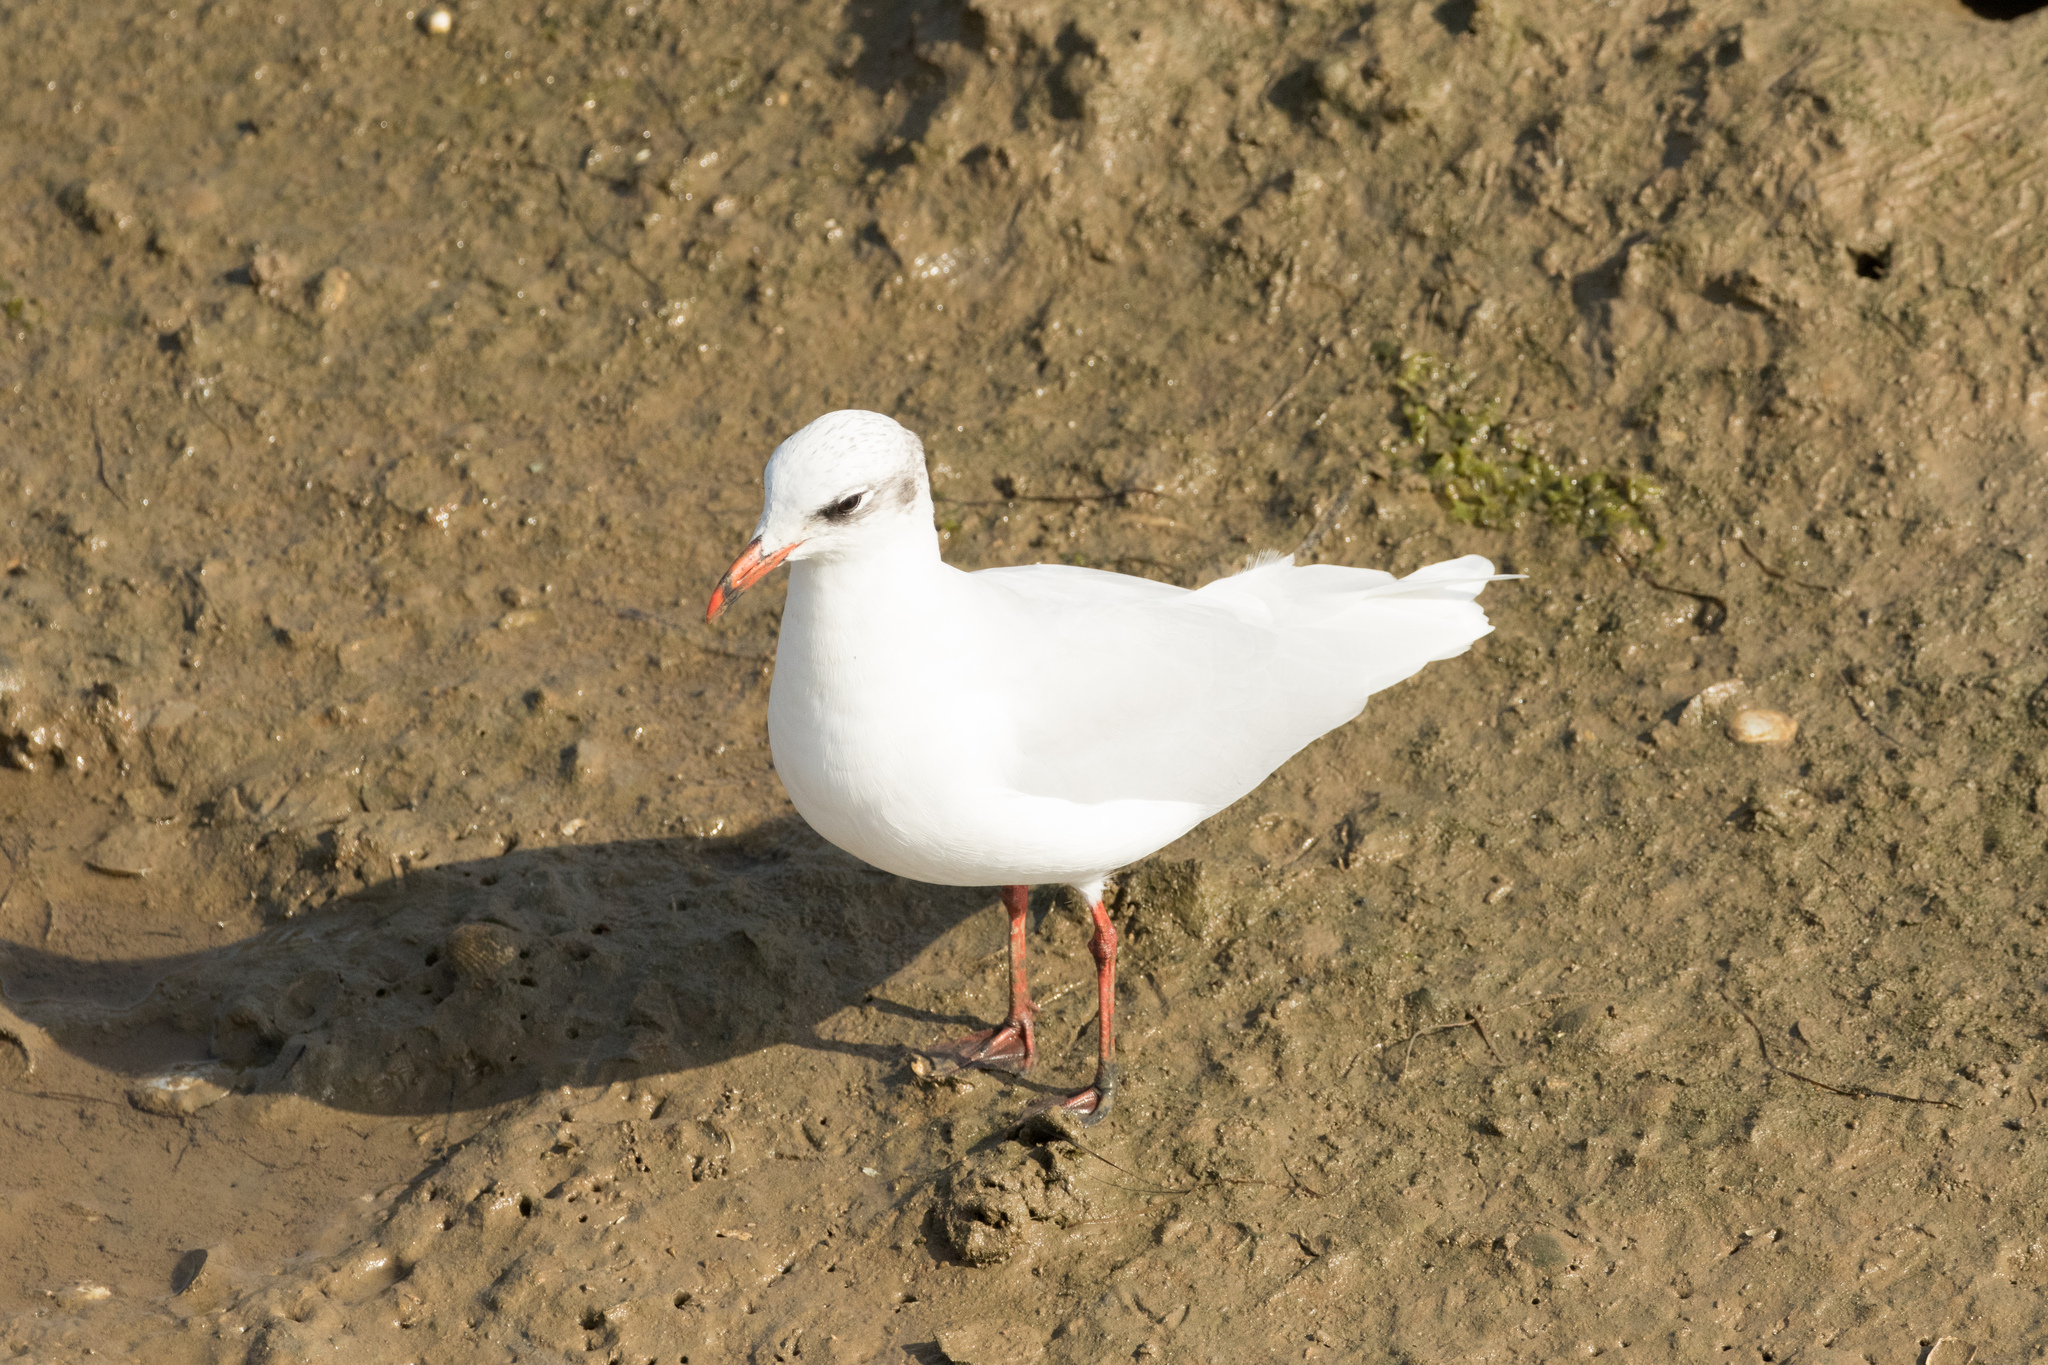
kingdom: Animalia
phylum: Chordata
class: Aves
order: Charadriiformes
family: Laridae
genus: Ichthyaetus
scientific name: Ichthyaetus melanocephalus
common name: Mediterranean gull
